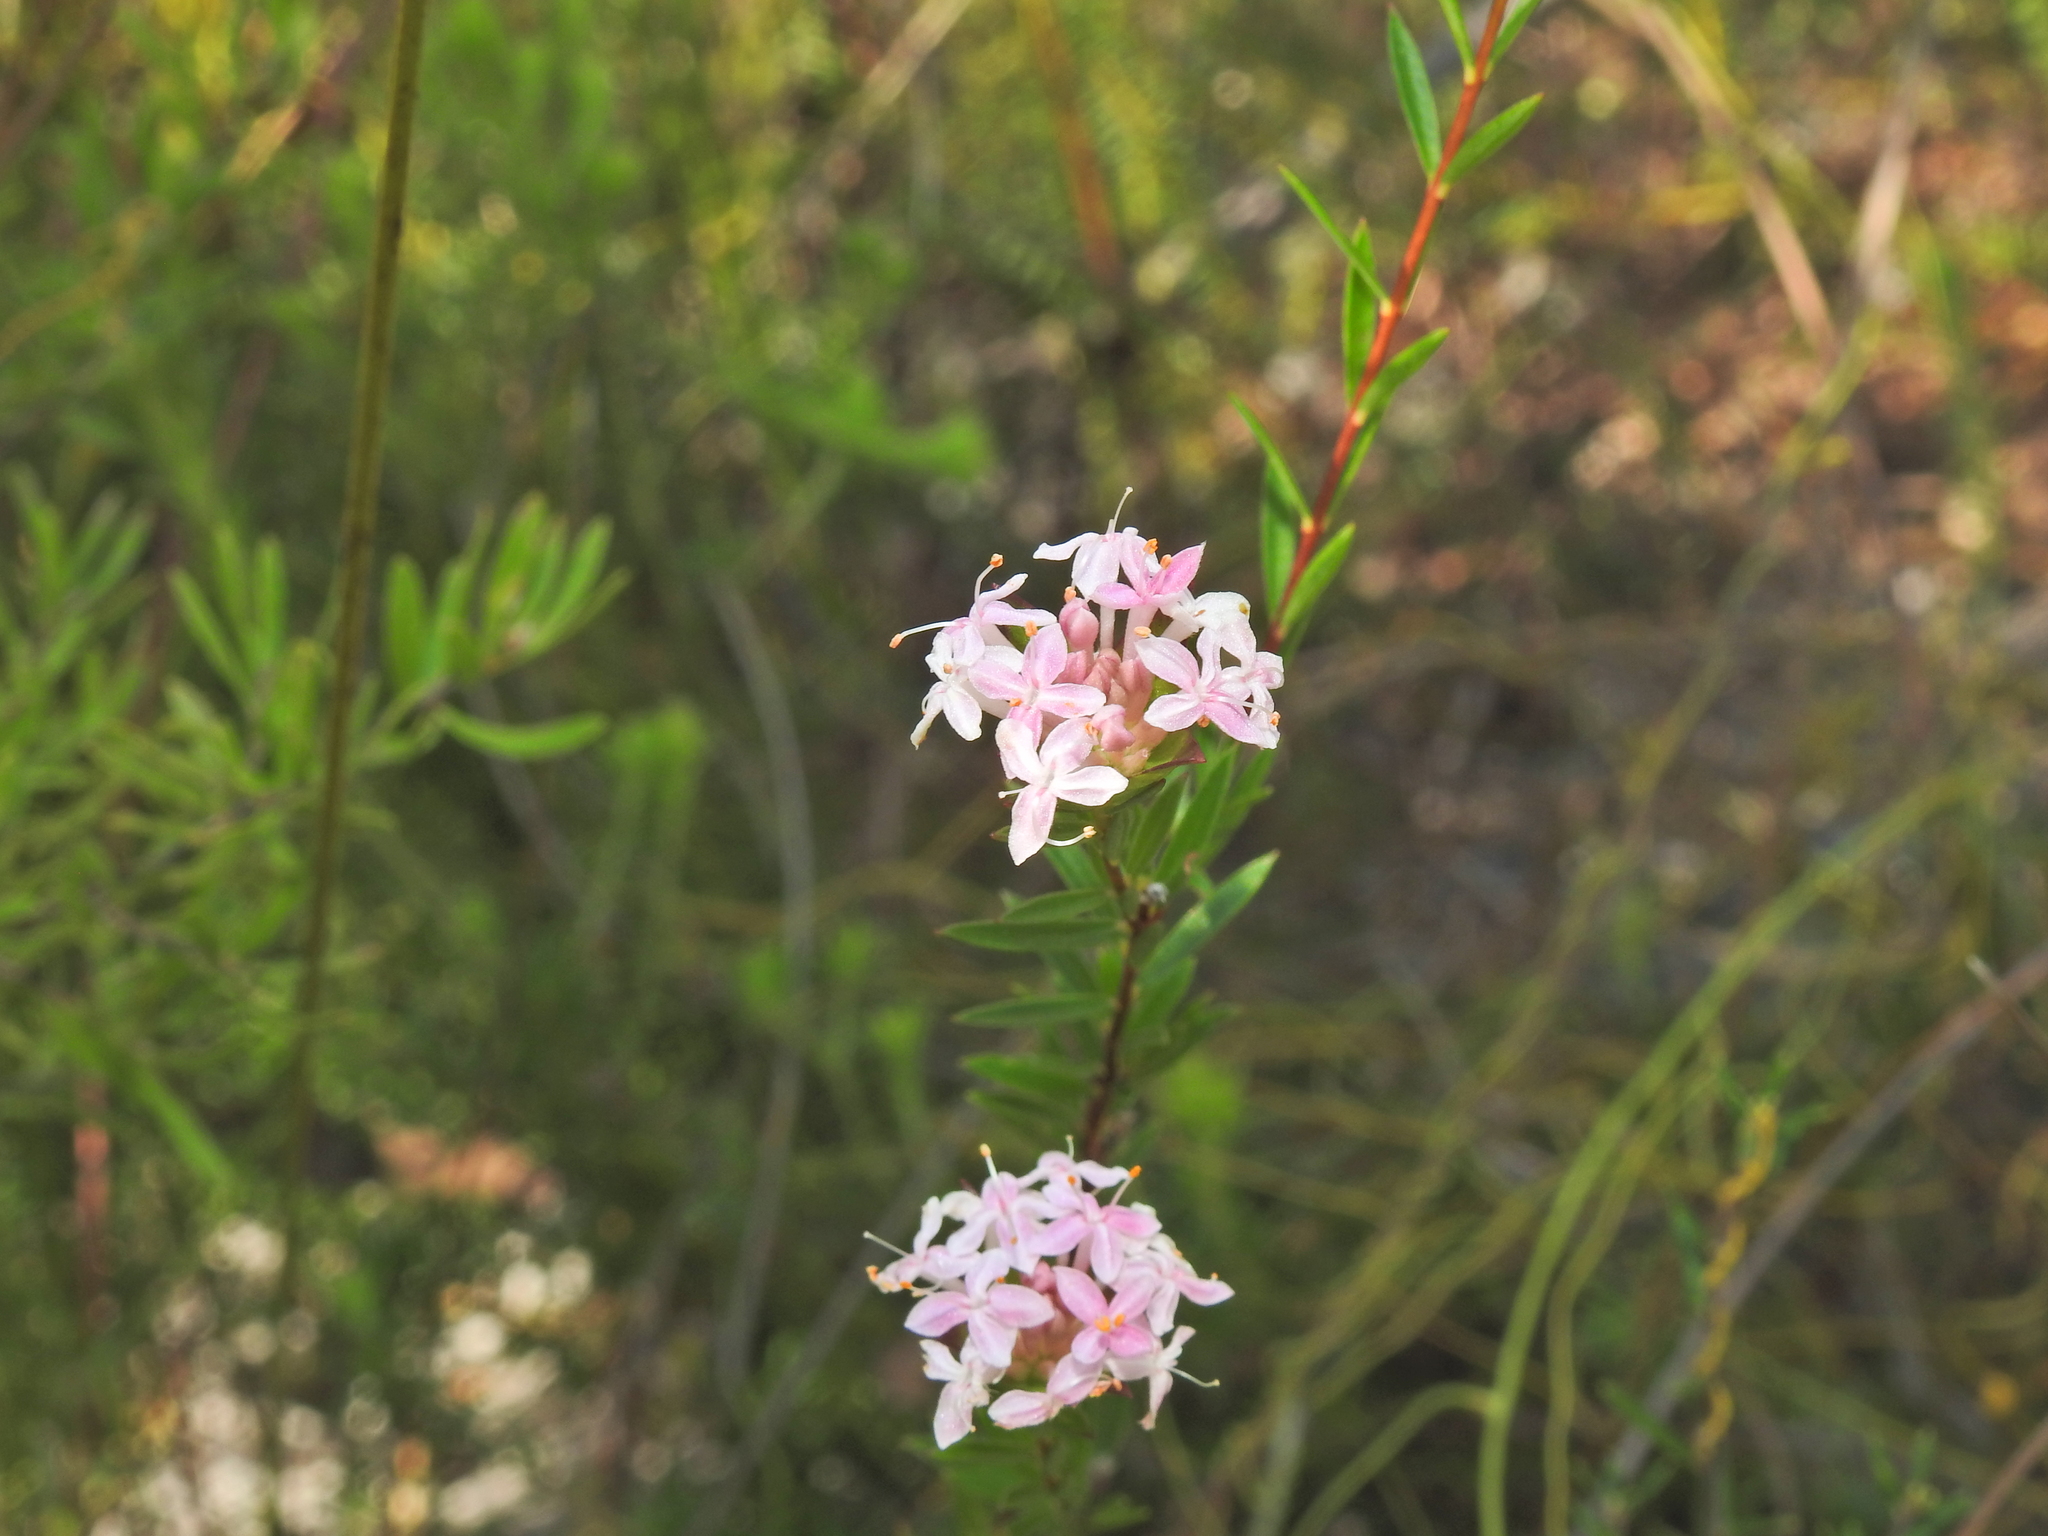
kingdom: Plantae
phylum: Tracheophyta
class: Magnoliopsida
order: Malvales
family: Thymelaeaceae
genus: Pimelea
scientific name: Pimelea linifolia
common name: Queen-of-the-bush
